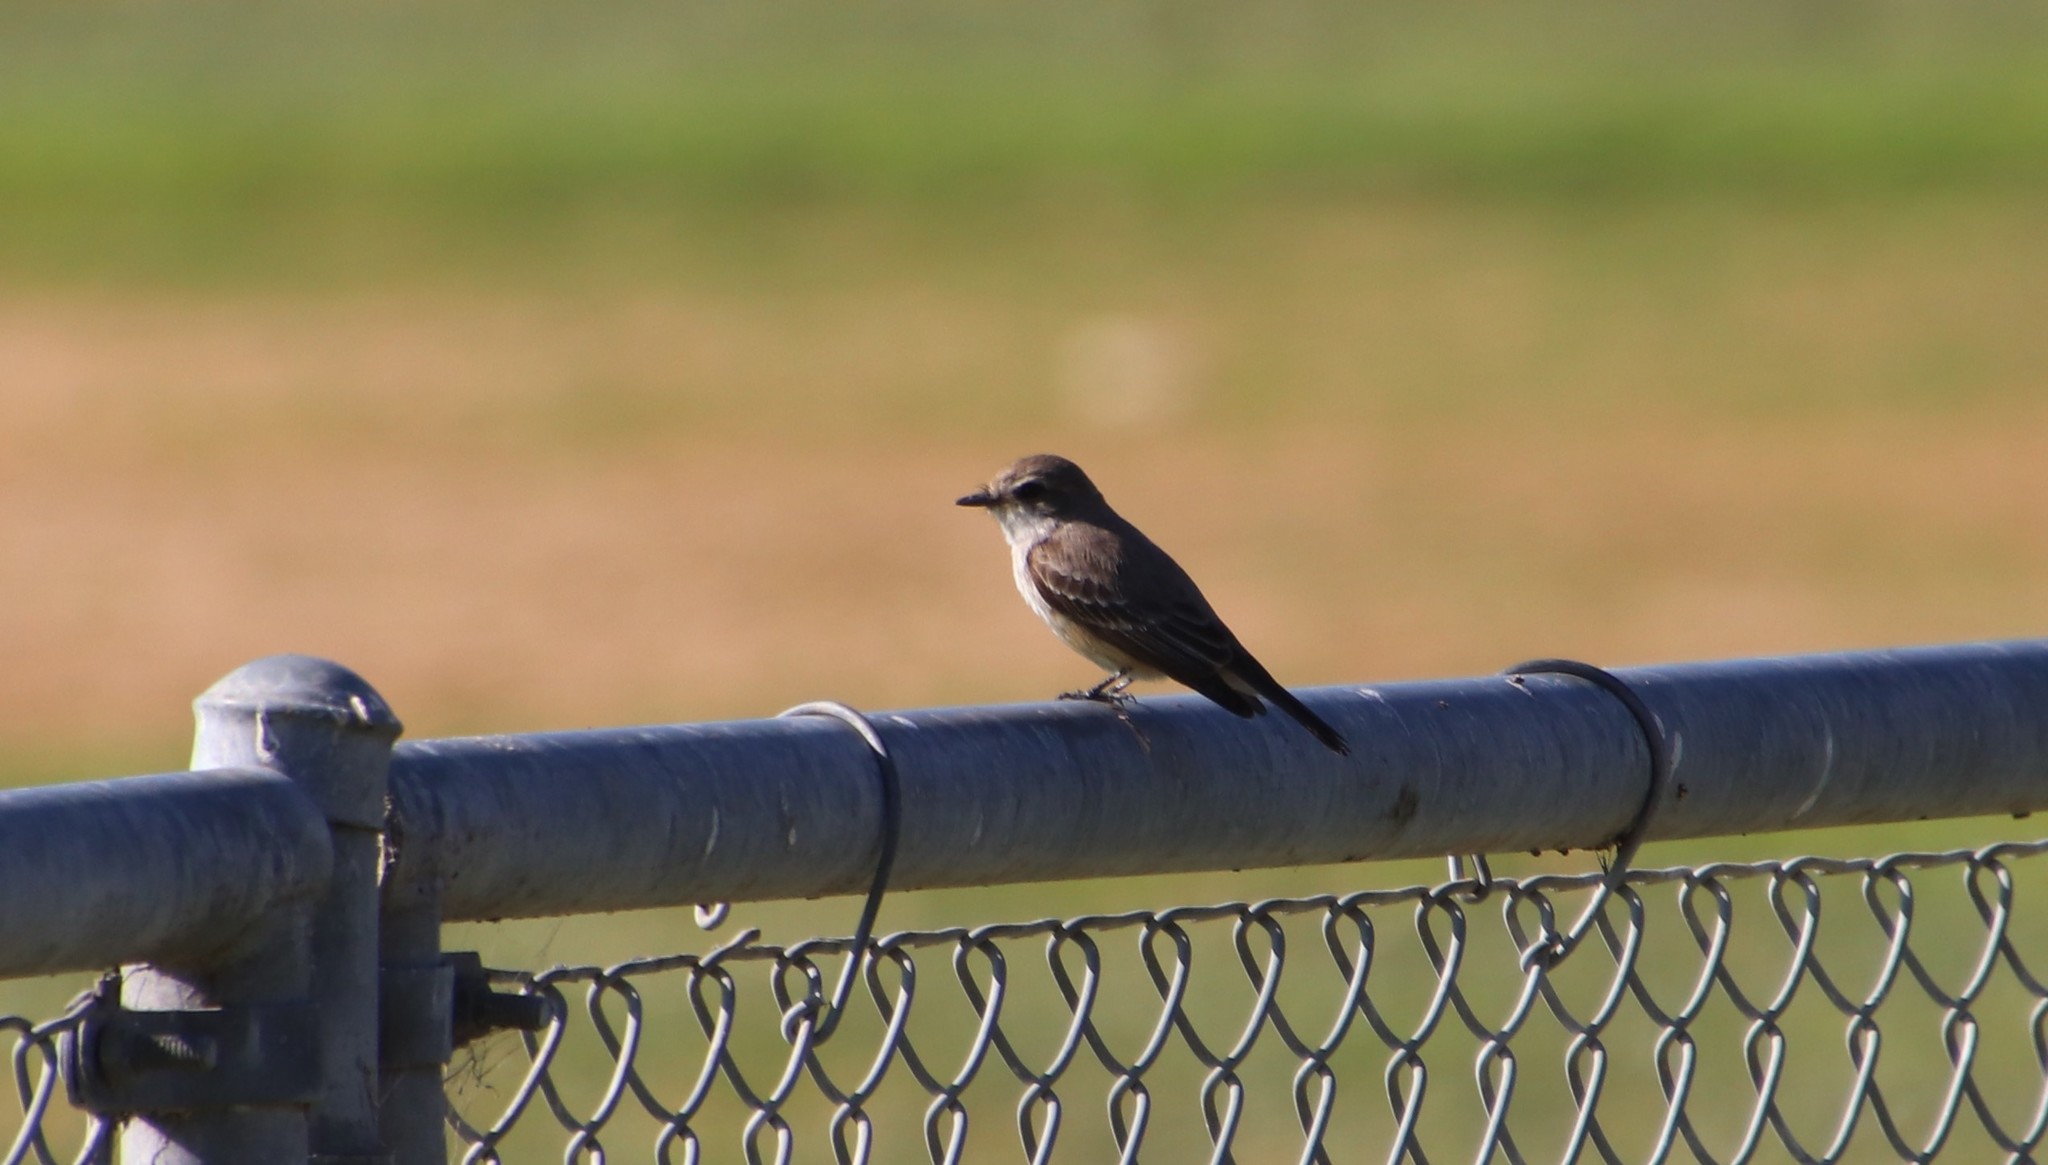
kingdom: Animalia
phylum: Chordata
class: Aves
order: Passeriformes
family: Tyrannidae
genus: Pyrocephalus
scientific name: Pyrocephalus rubinus
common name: Vermilion flycatcher
